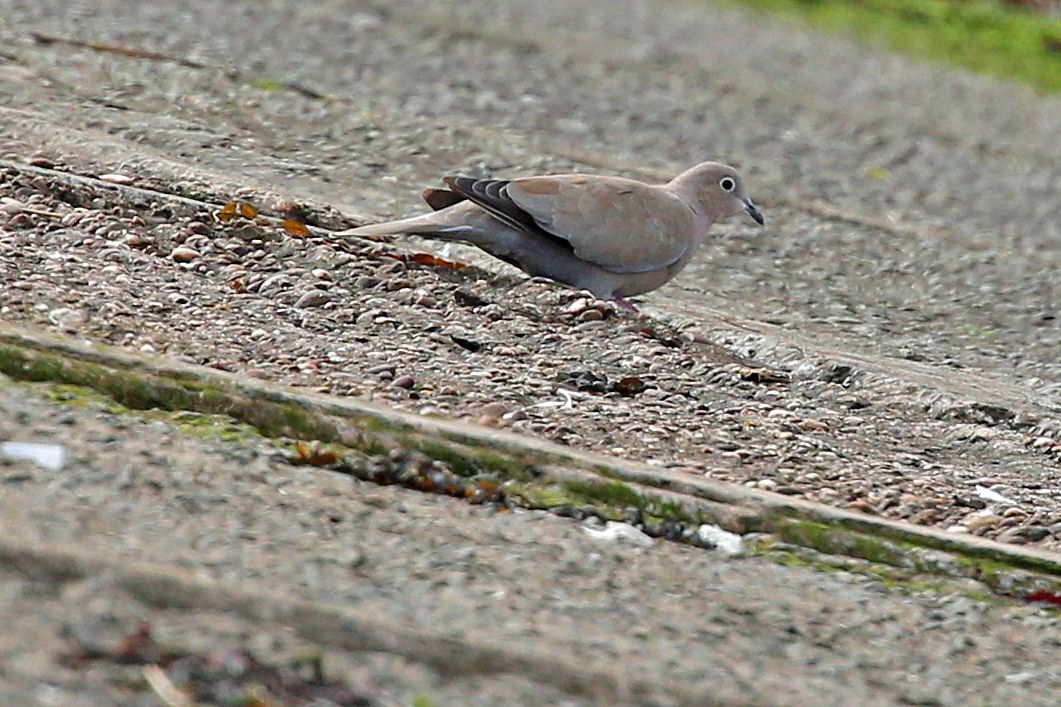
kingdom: Animalia
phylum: Chordata
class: Aves
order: Columbiformes
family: Columbidae
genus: Streptopelia
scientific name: Streptopelia decaocto
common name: Eurasian collared dove
